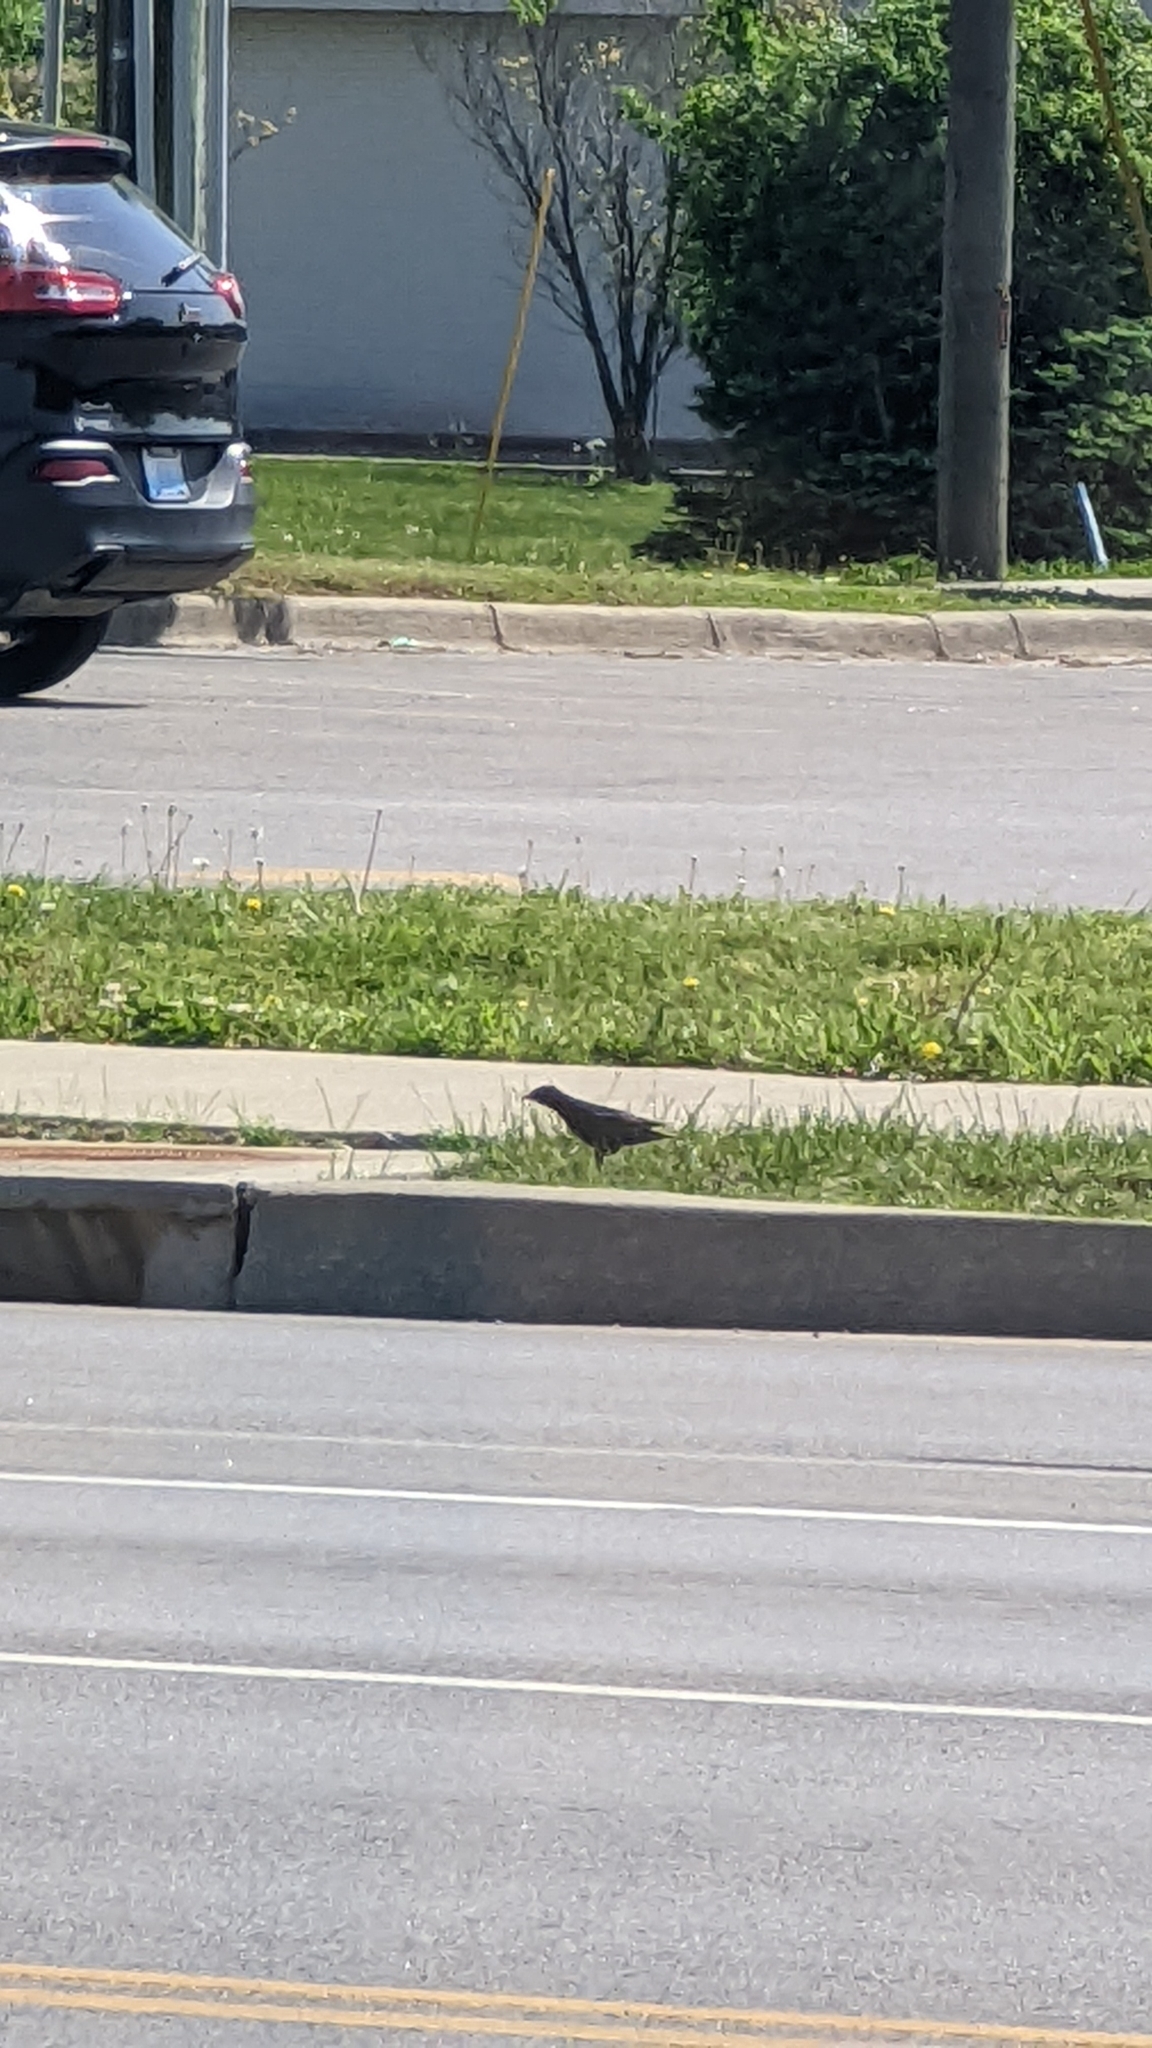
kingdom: Animalia
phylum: Chordata
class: Aves
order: Passeriformes
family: Sturnidae
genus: Sturnus
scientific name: Sturnus vulgaris
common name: Common starling
